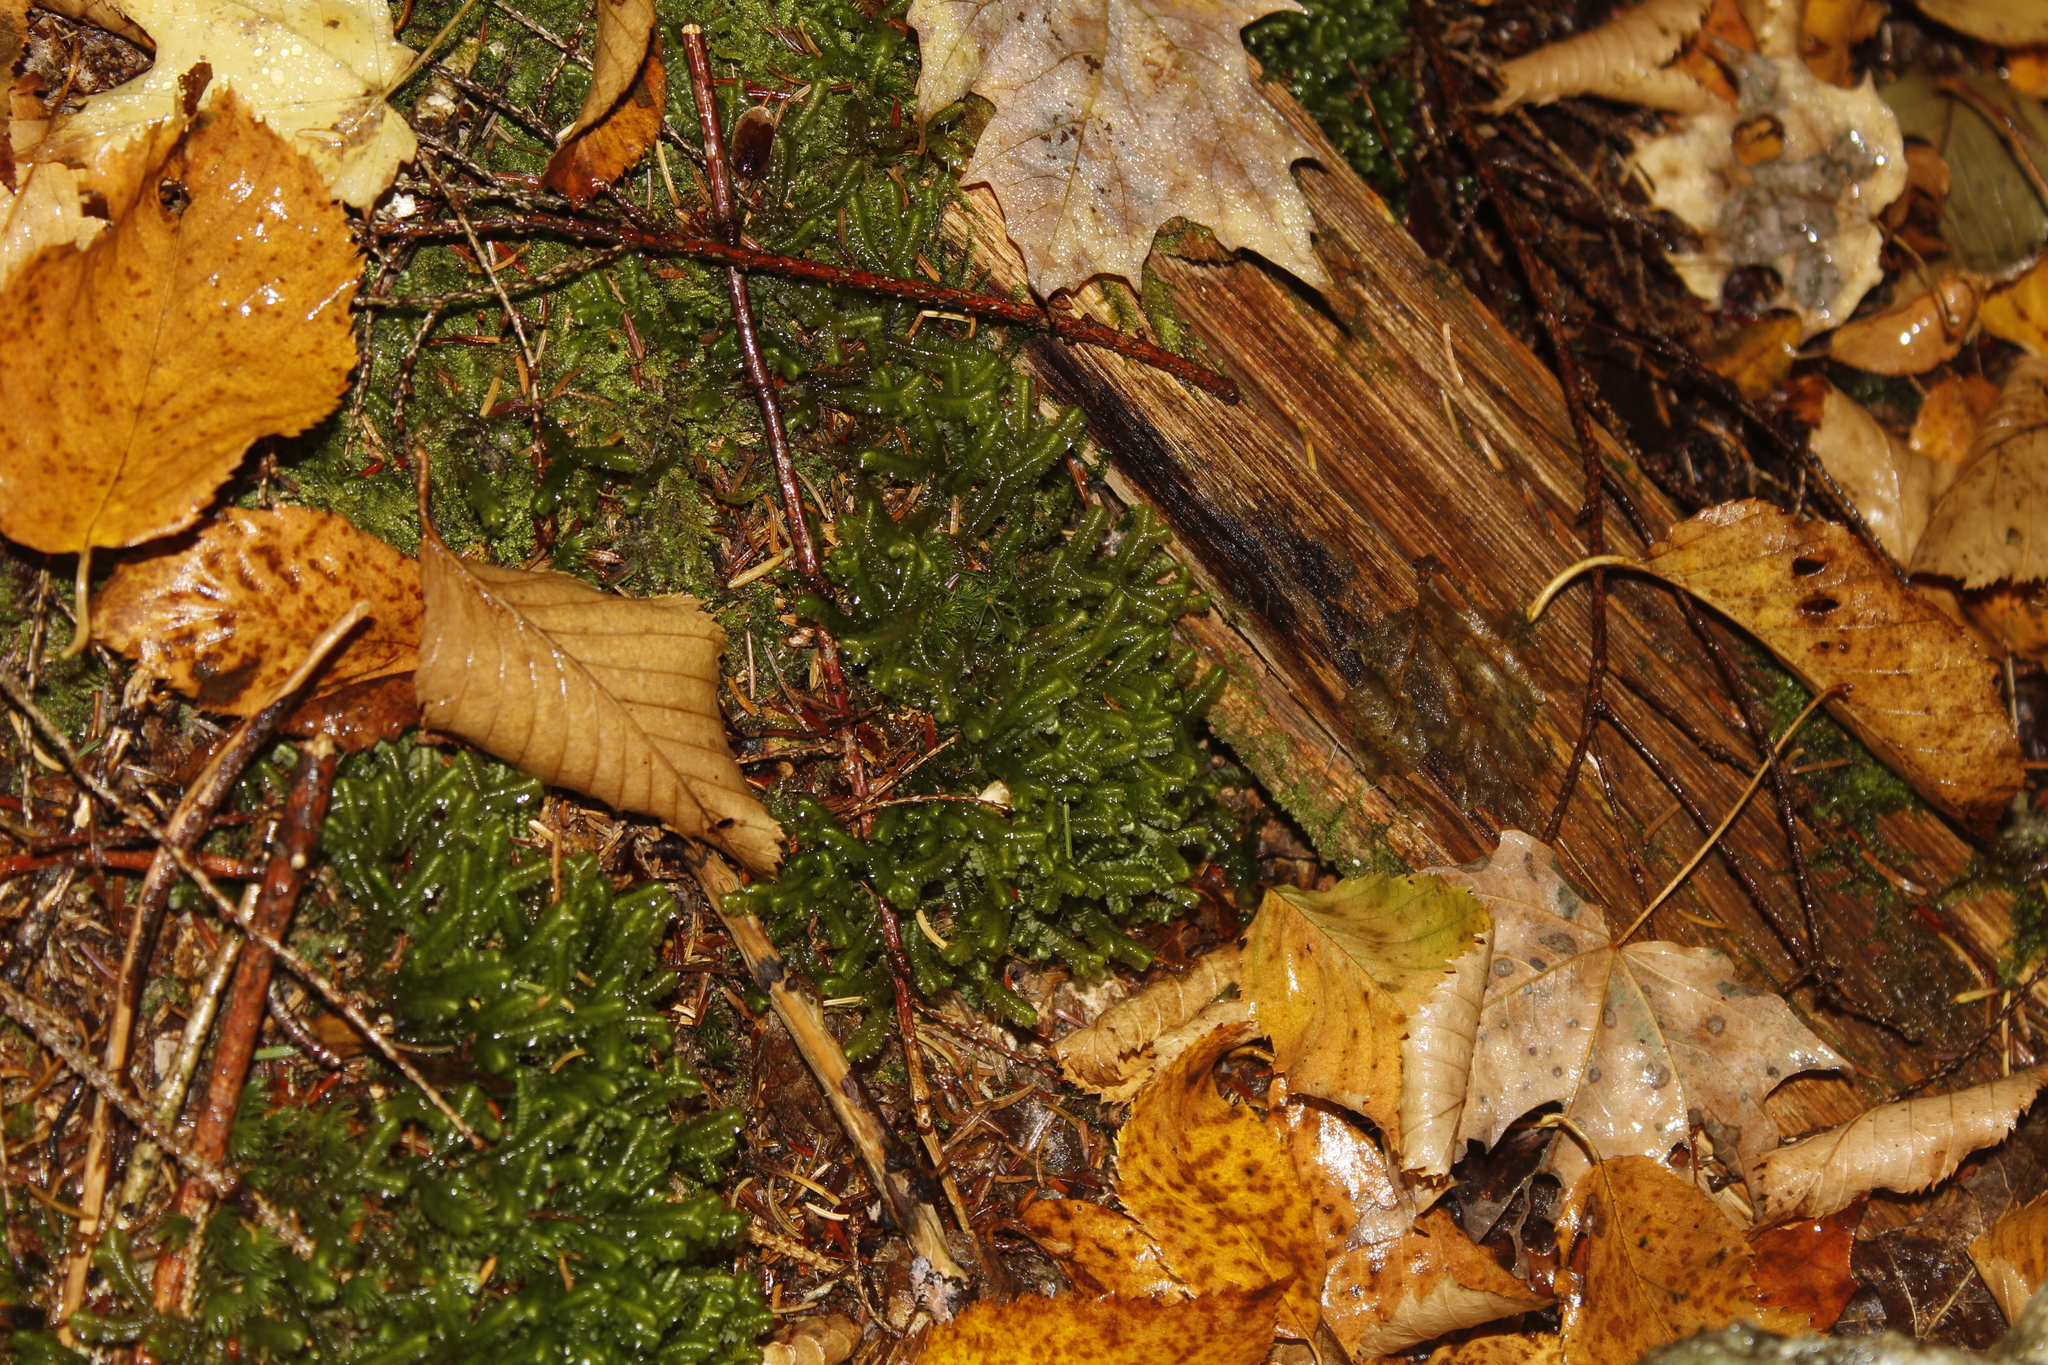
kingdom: Plantae
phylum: Marchantiophyta
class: Jungermanniopsida
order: Jungermanniales
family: Lepidoziaceae
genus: Bazzania
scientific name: Bazzania trilobata
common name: Three-lobed whipwort
